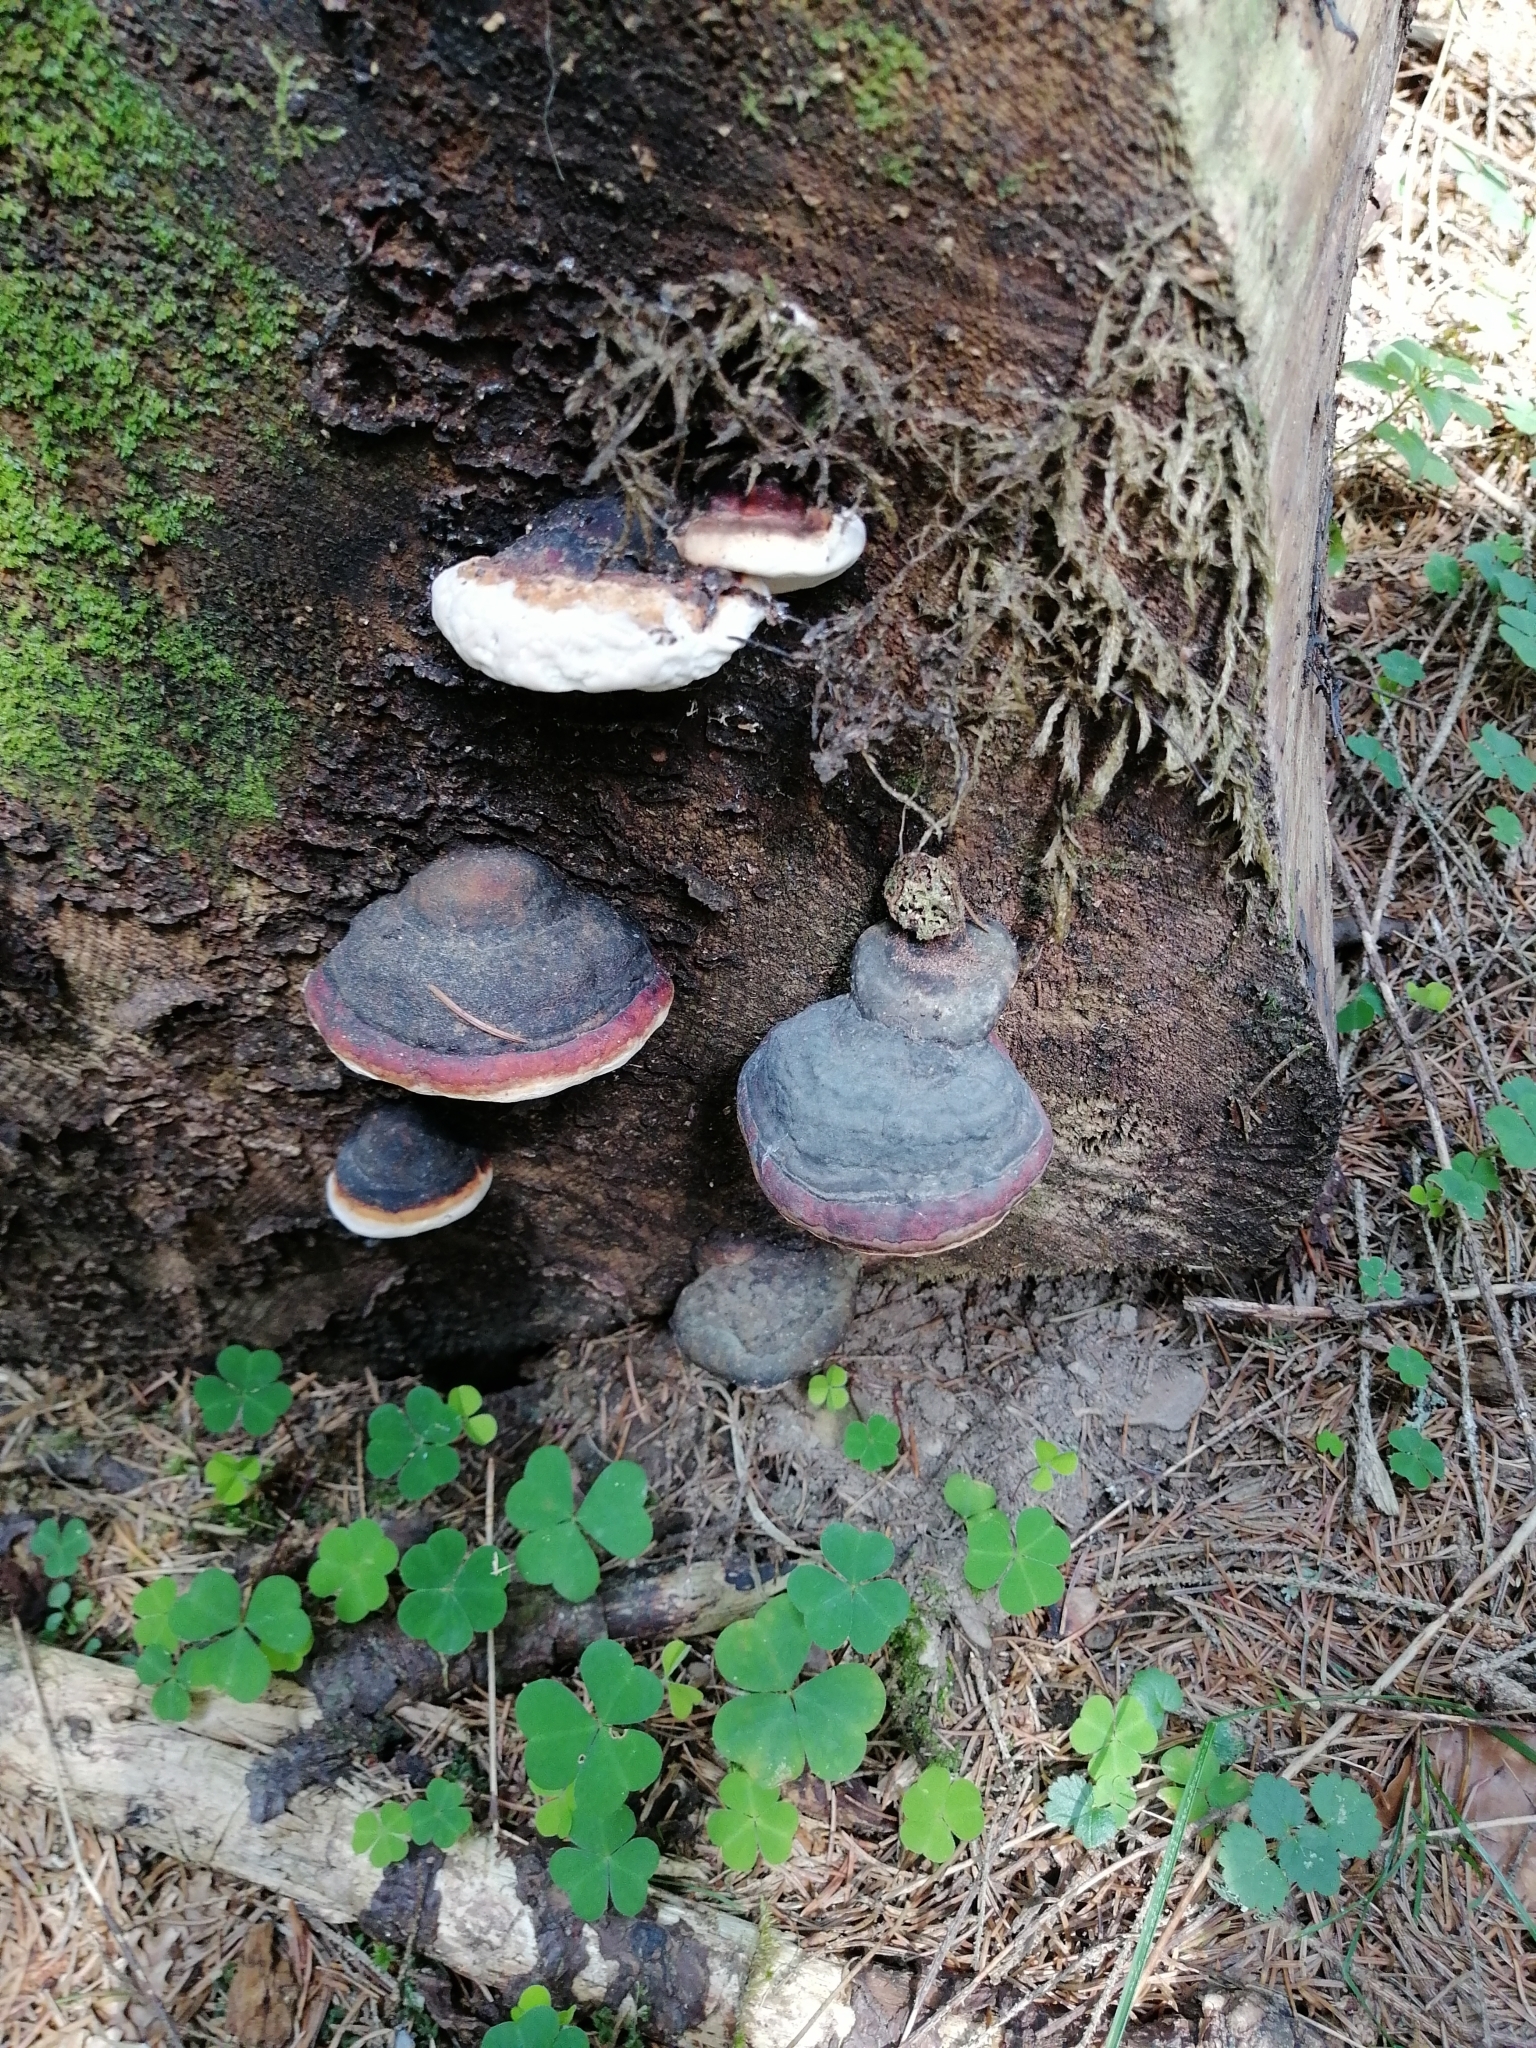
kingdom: Fungi
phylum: Basidiomycota
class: Agaricomycetes
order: Polyporales
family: Fomitopsidaceae
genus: Fomitopsis
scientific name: Fomitopsis pinicola
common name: Red-belted bracket
